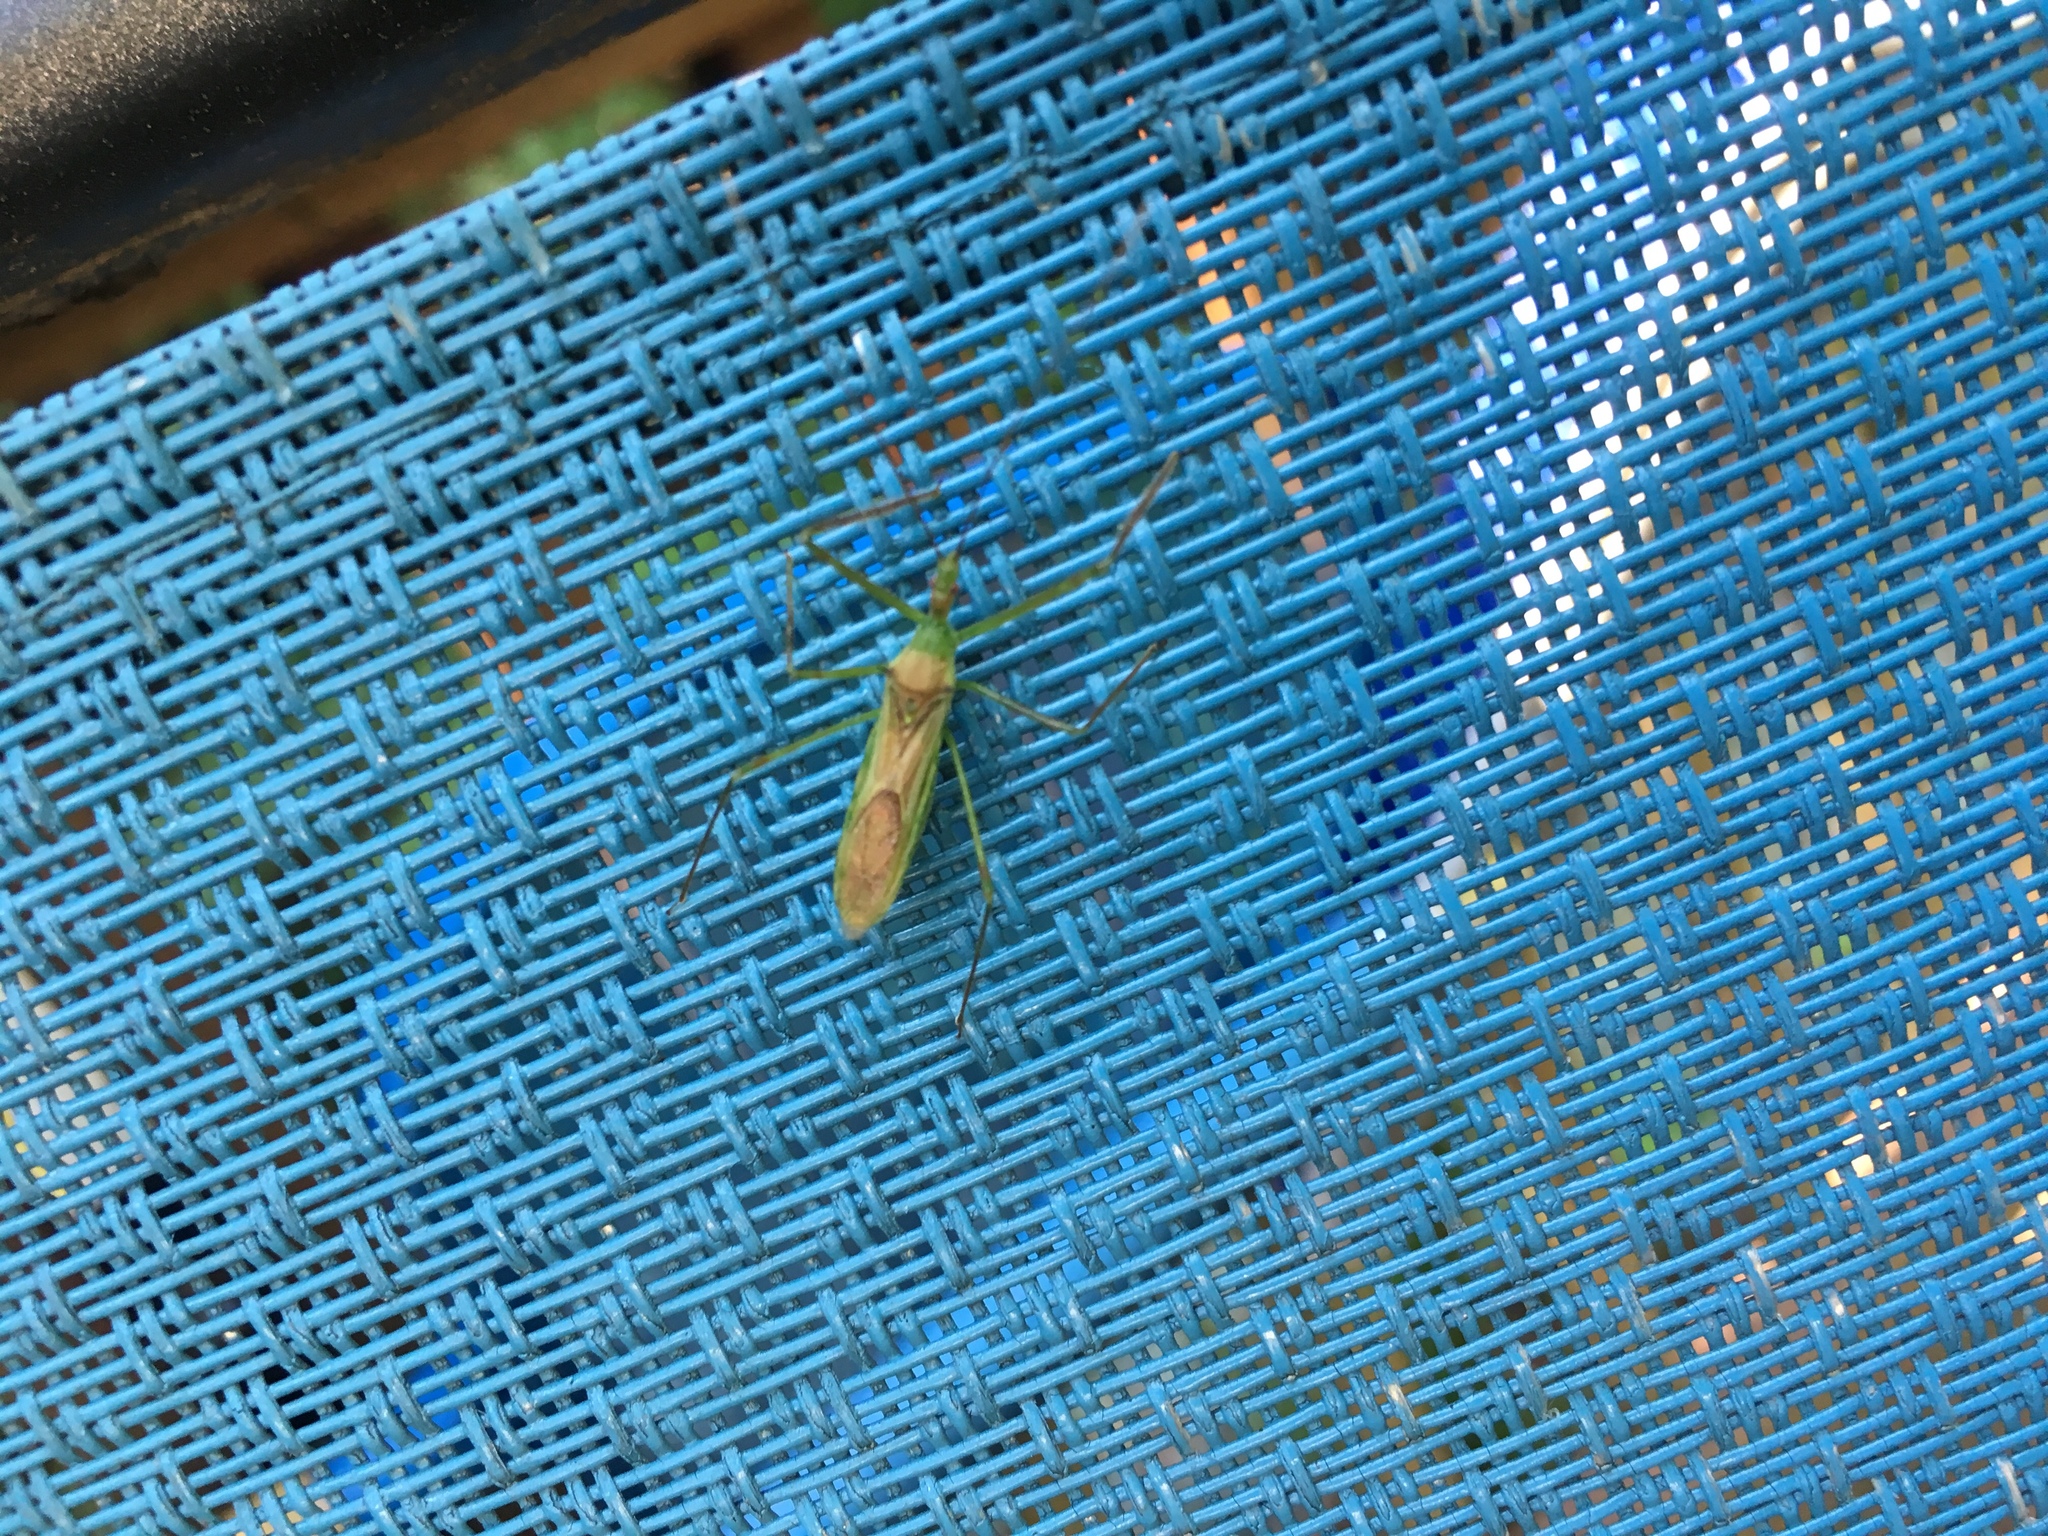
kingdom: Animalia
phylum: Arthropoda
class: Insecta
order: Hemiptera
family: Reduviidae
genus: Zelus
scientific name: Zelus luridus
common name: Pale green assassin bug
